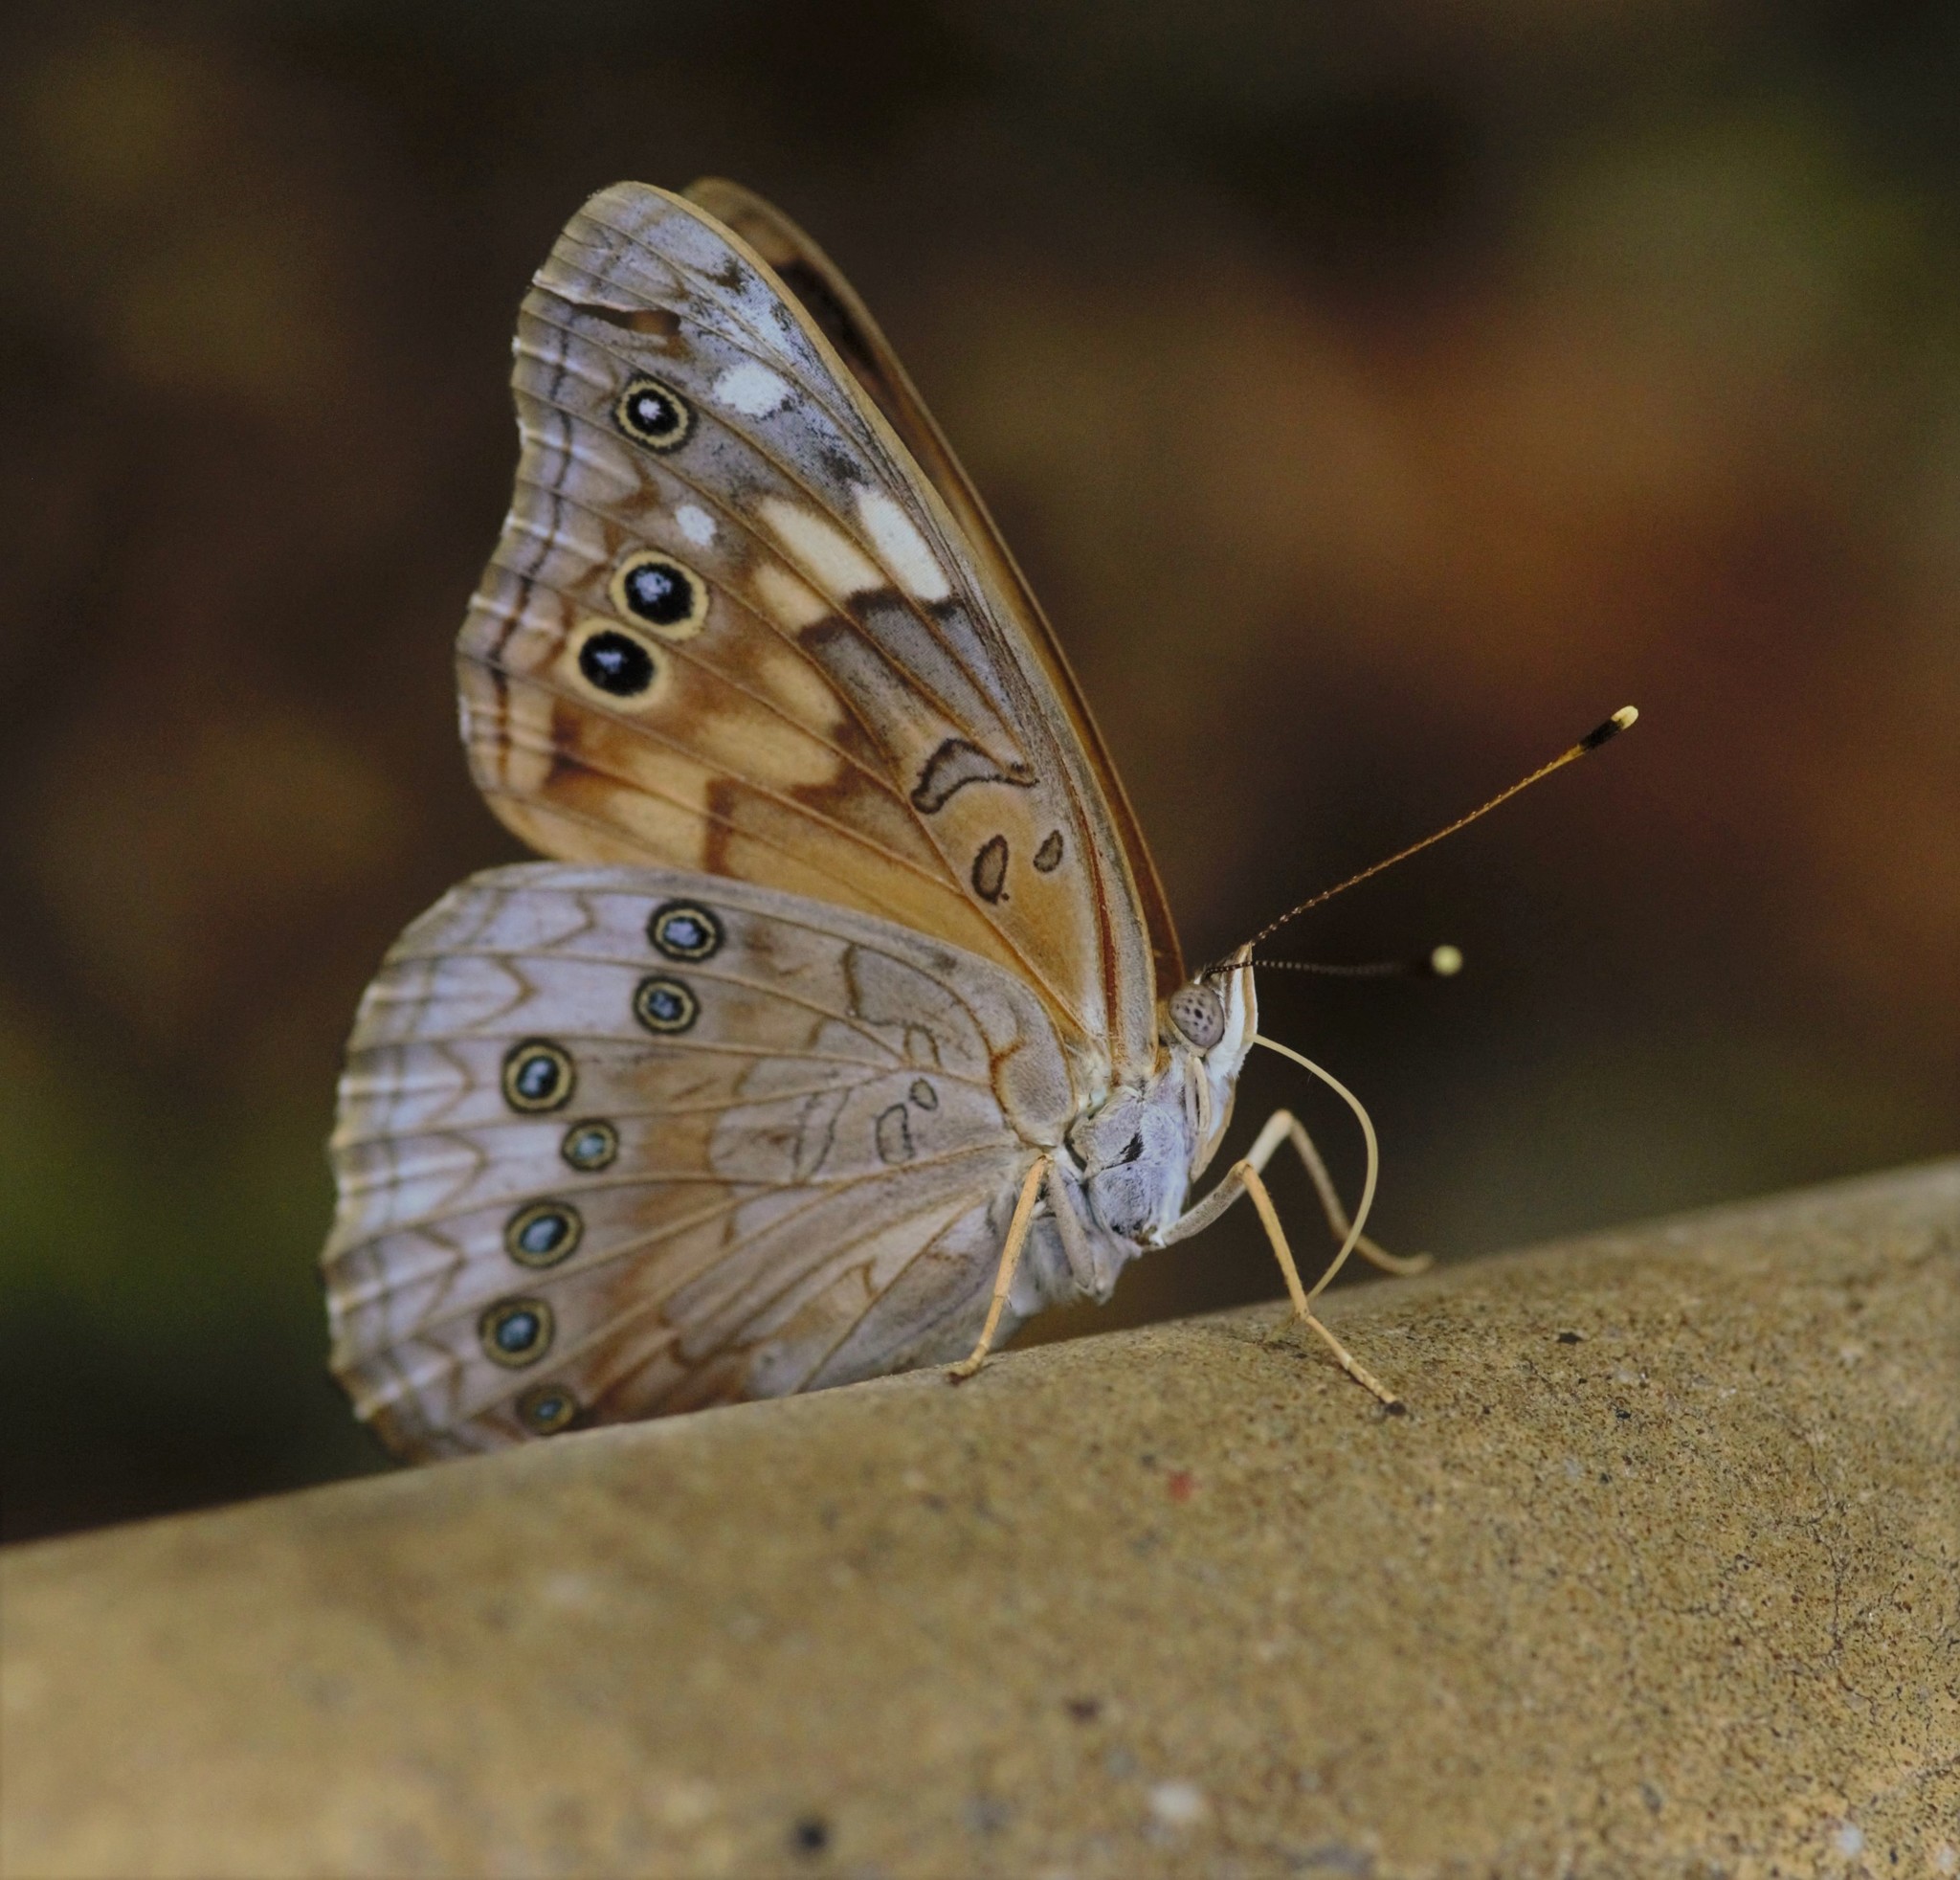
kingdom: Animalia
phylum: Arthropoda
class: Insecta
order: Lepidoptera
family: Nymphalidae
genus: Asterocampa
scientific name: Asterocampa celtis
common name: Hackberry emperor
